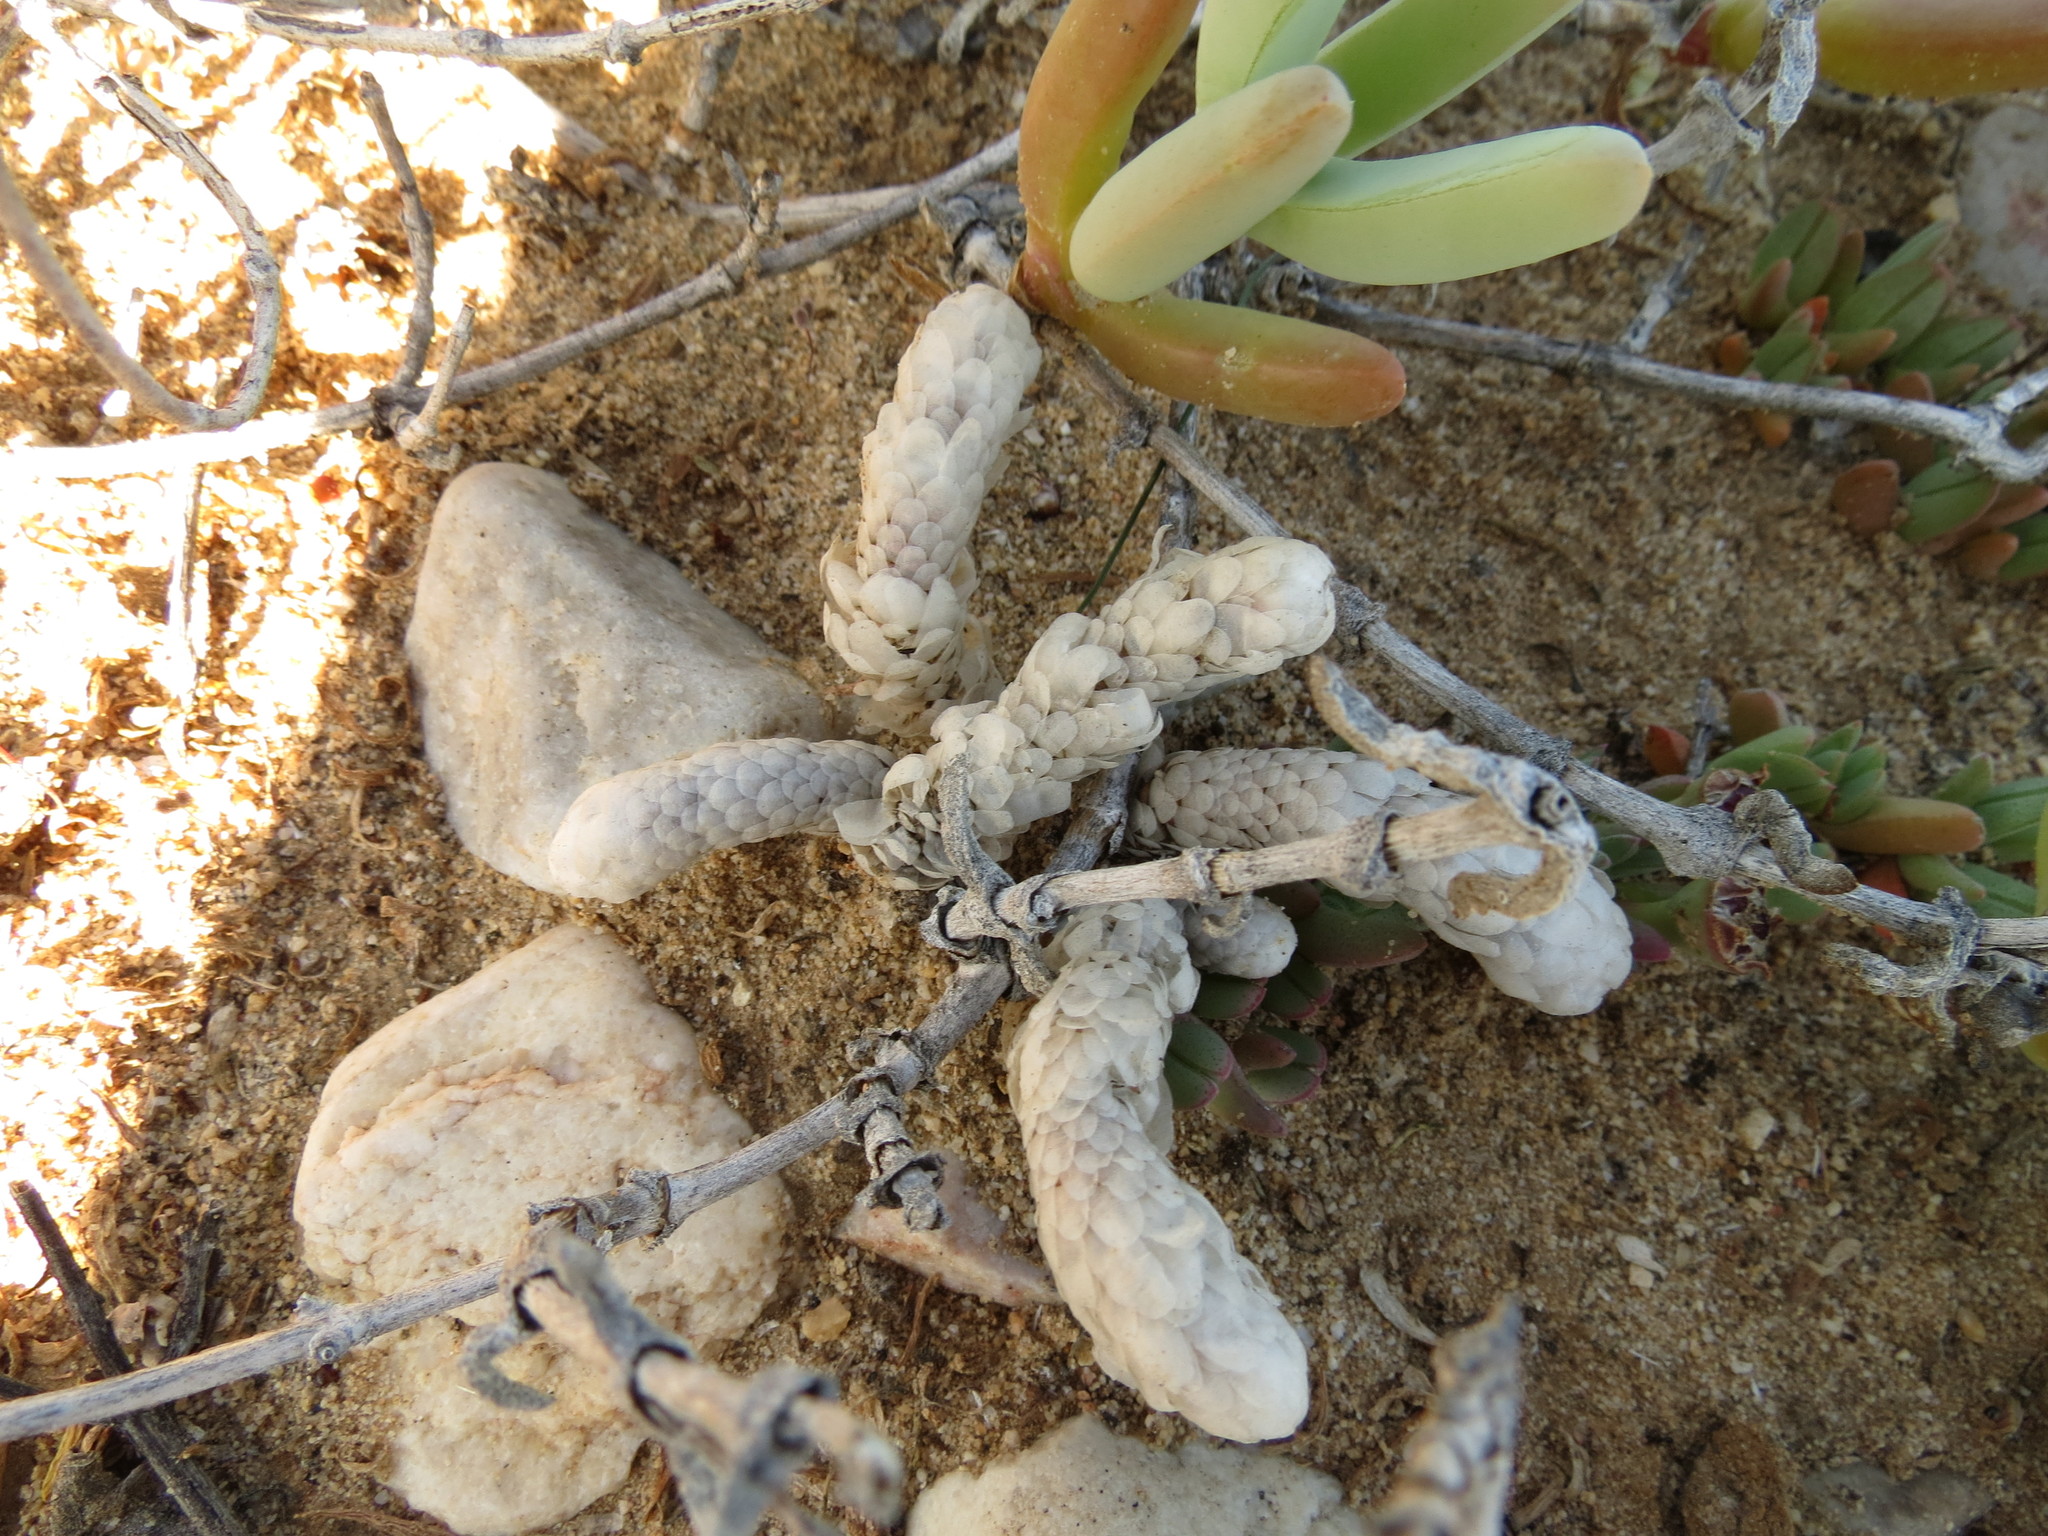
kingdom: Plantae
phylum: Tracheophyta
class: Magnoliopsida
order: Caryophyllales
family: Anacampserotaceae
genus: Avonia
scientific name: Avonia papyracea
